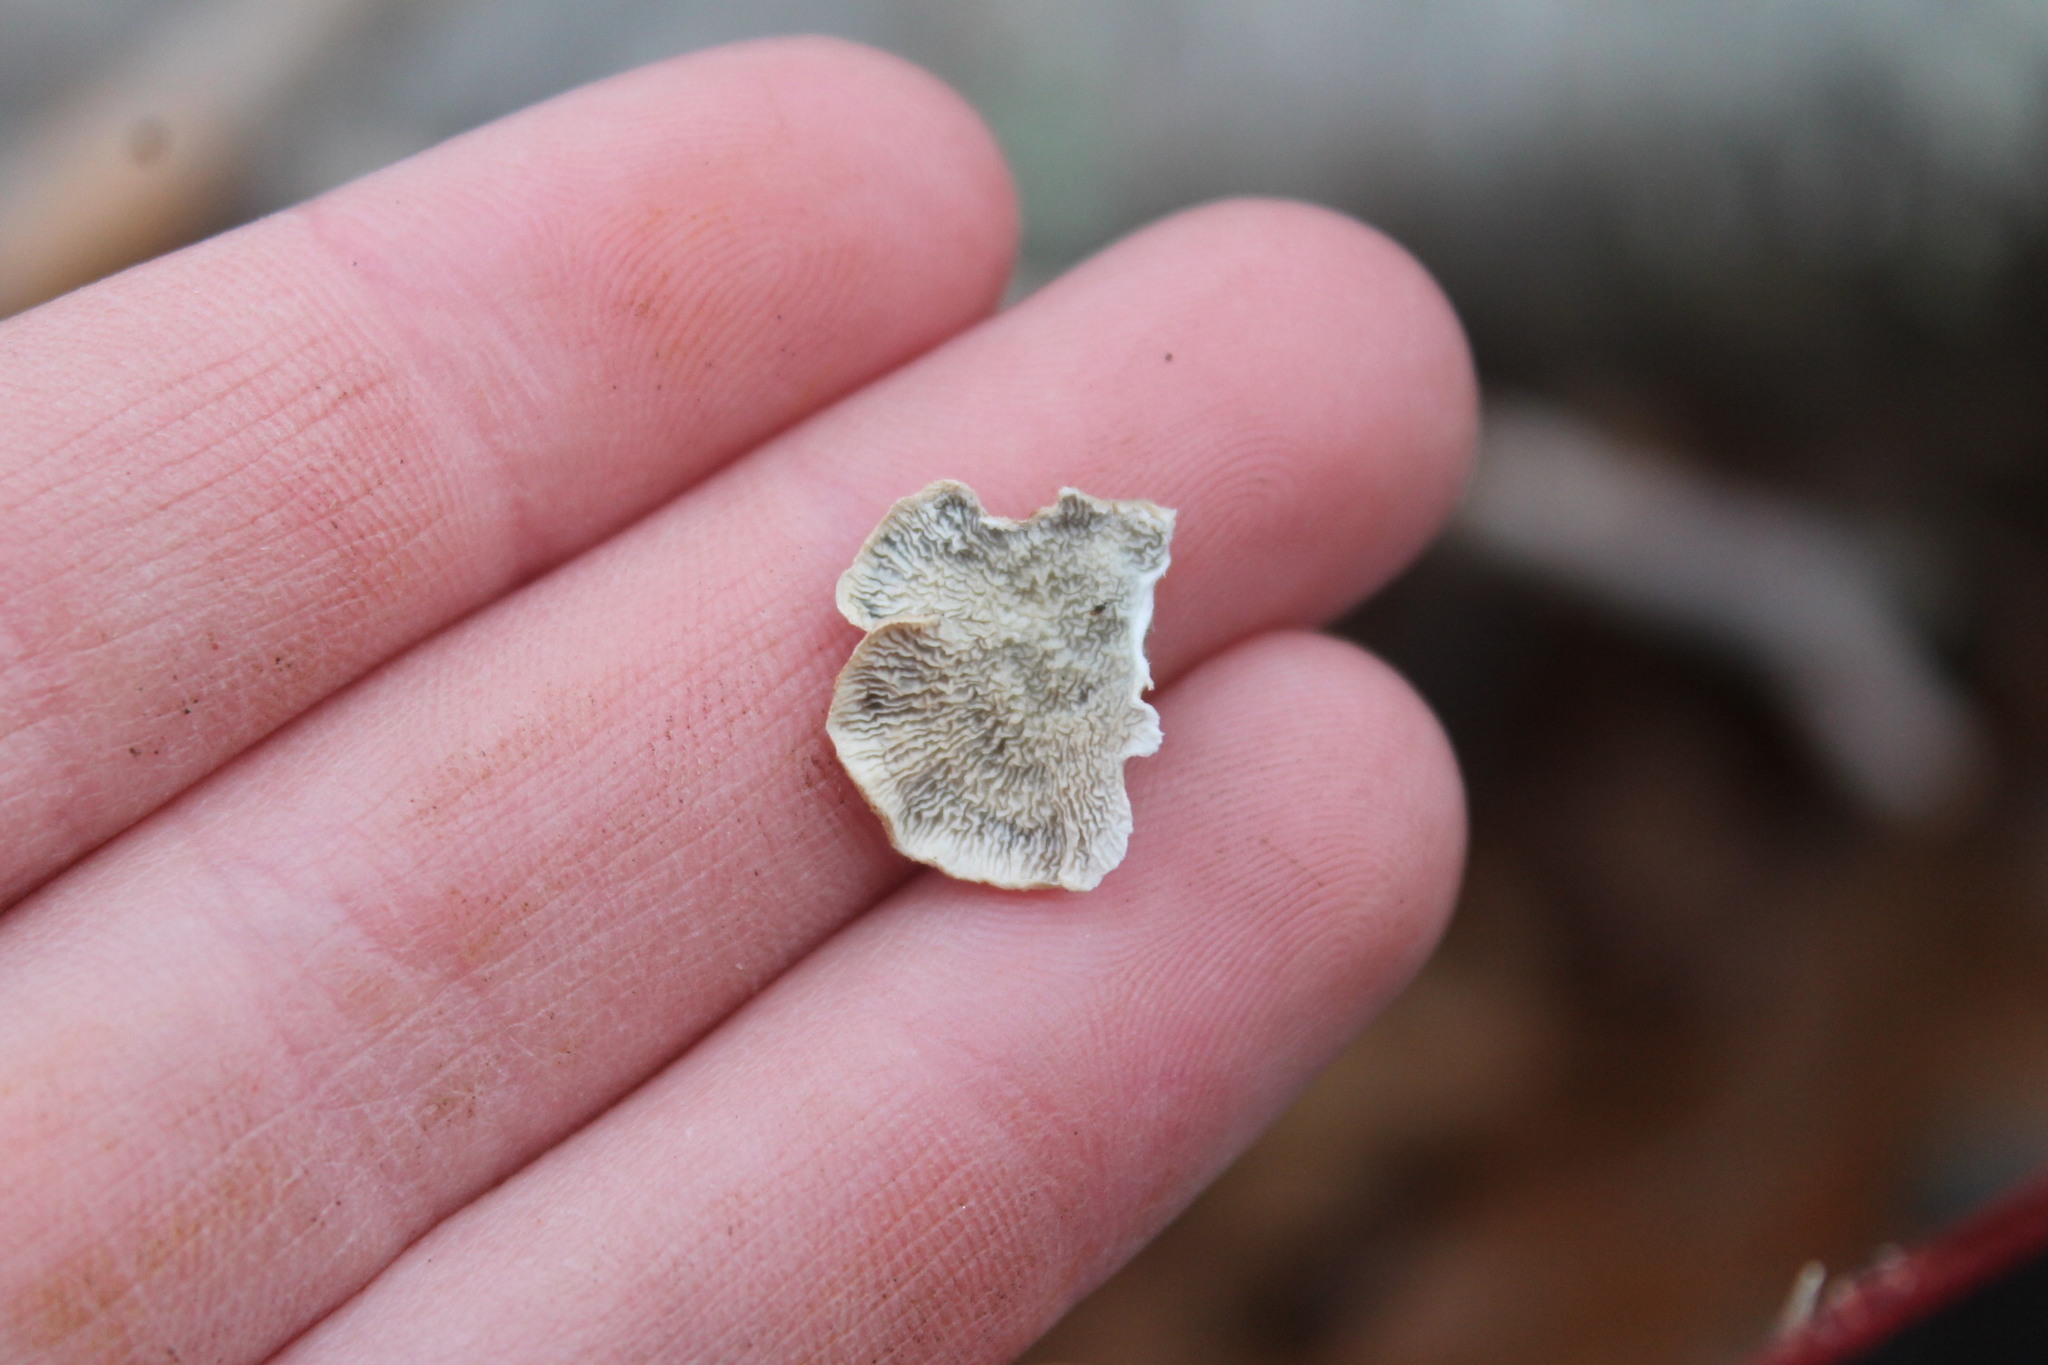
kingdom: Fungi
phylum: Basidiomycota
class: Agaricomycetes
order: Amylocorticiales
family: Amylocorticiaceae
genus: Plicaturopsis
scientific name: Plicaturopsis crispa
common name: Crimped gill
